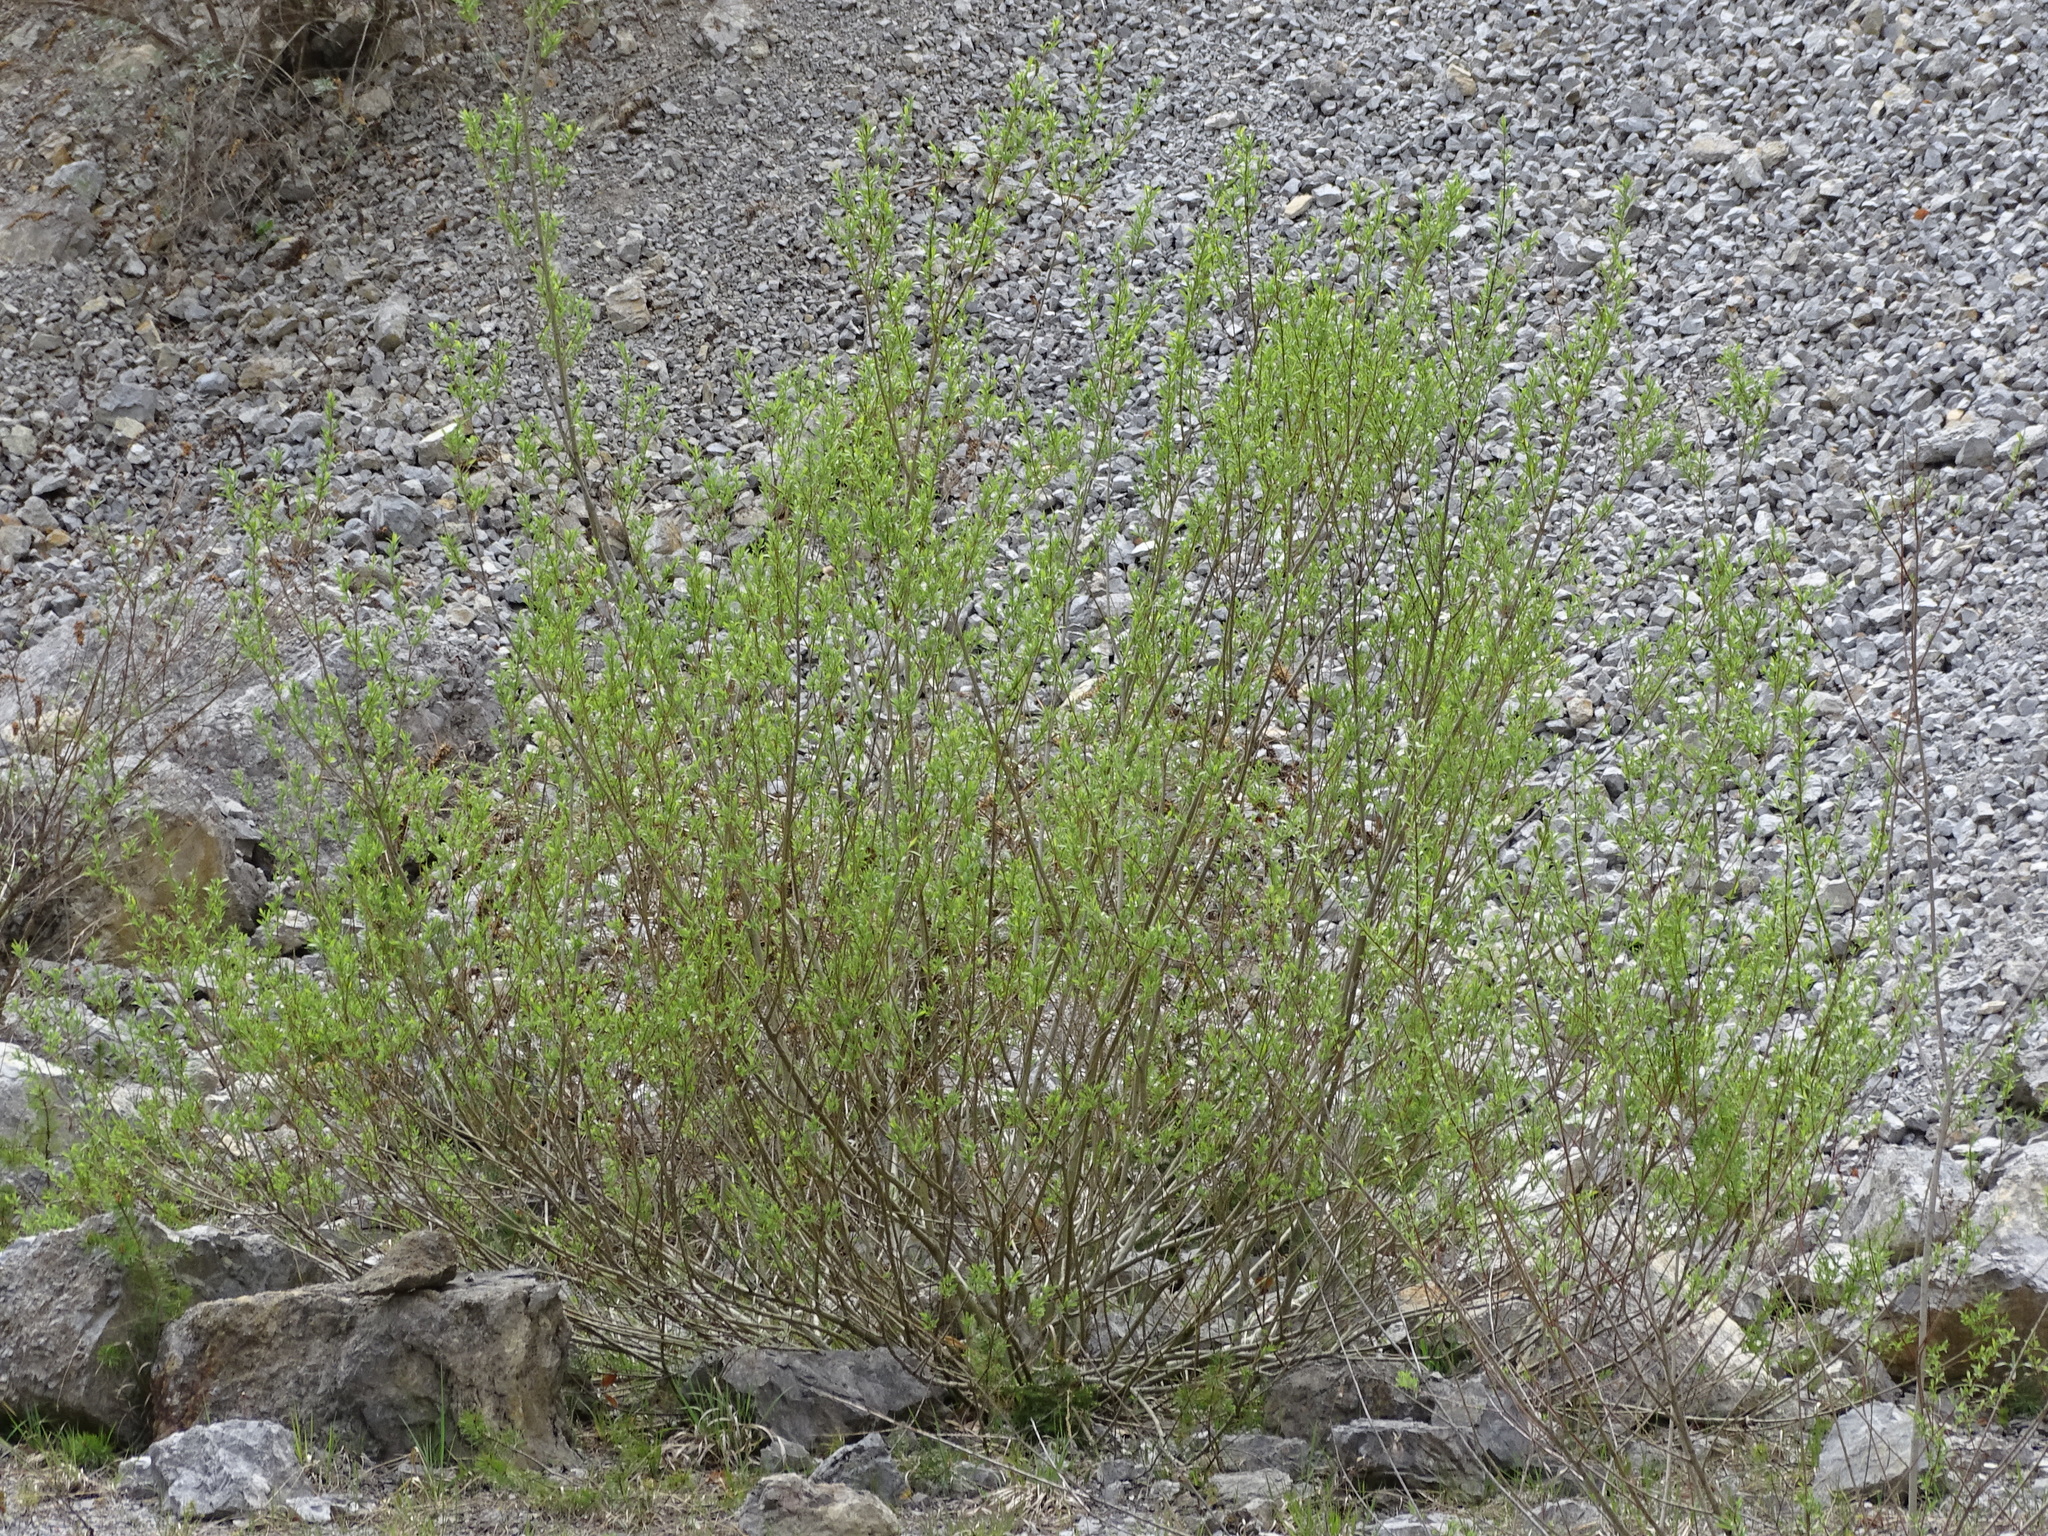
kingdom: Plantae
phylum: Tracheophyta
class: Magnoliopsida
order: Malpighiales
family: Salicaceae
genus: Salix
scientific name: Salix purpurea
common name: Purple willow
